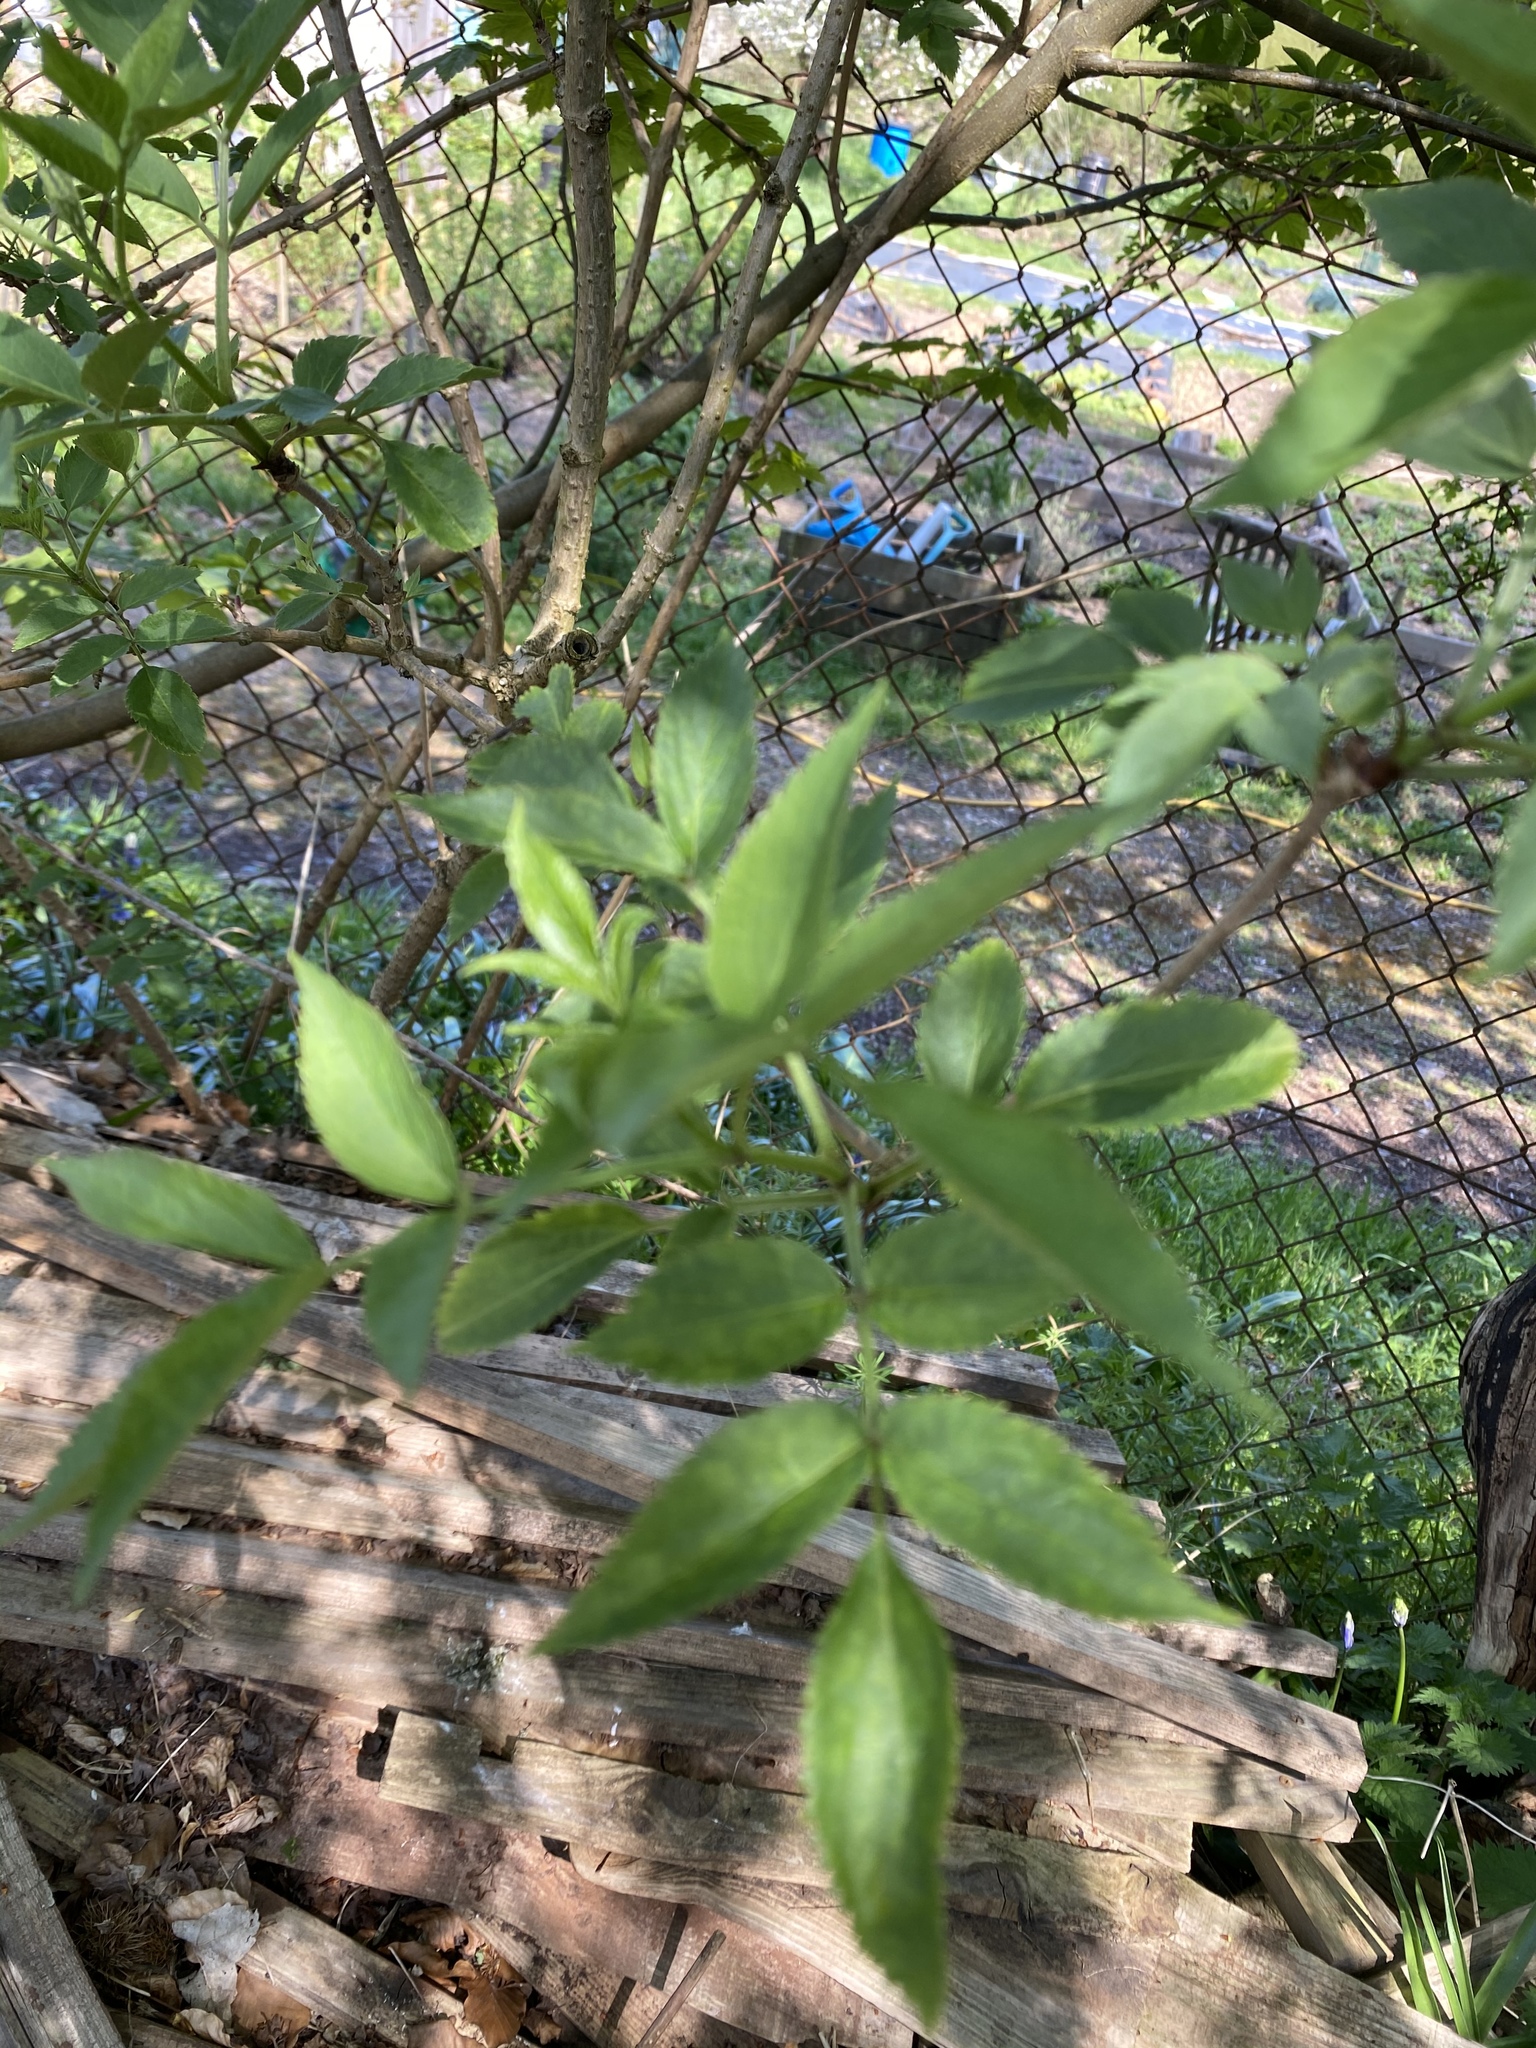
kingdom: Plantae
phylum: Tracheophyta
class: Magnoliopsida
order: Dipsacales
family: Viburnaceae
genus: Sambucus
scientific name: Sambucus nigra
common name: Elder
